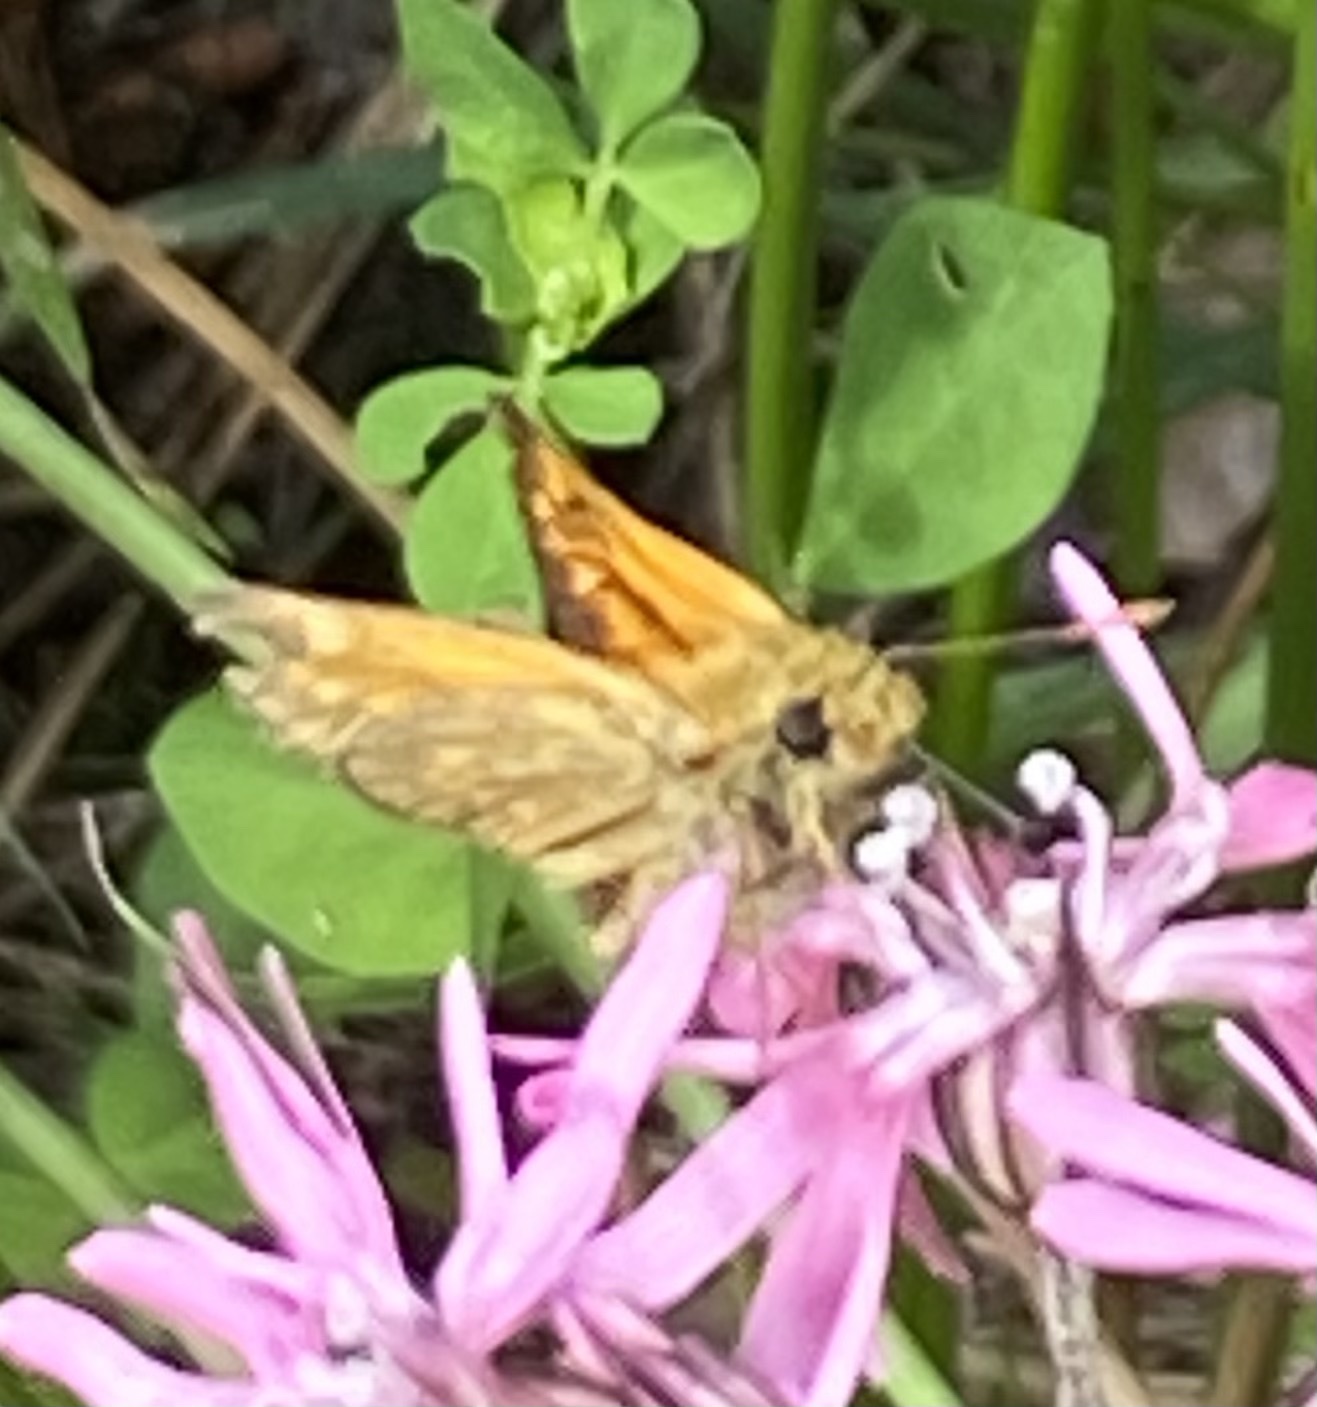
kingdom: Animalia
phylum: Arthropoda
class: Insecta
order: Lepidoptera
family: Hesperiidae
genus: Ochlodes
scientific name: Ochlodes venata
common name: Large skipper
